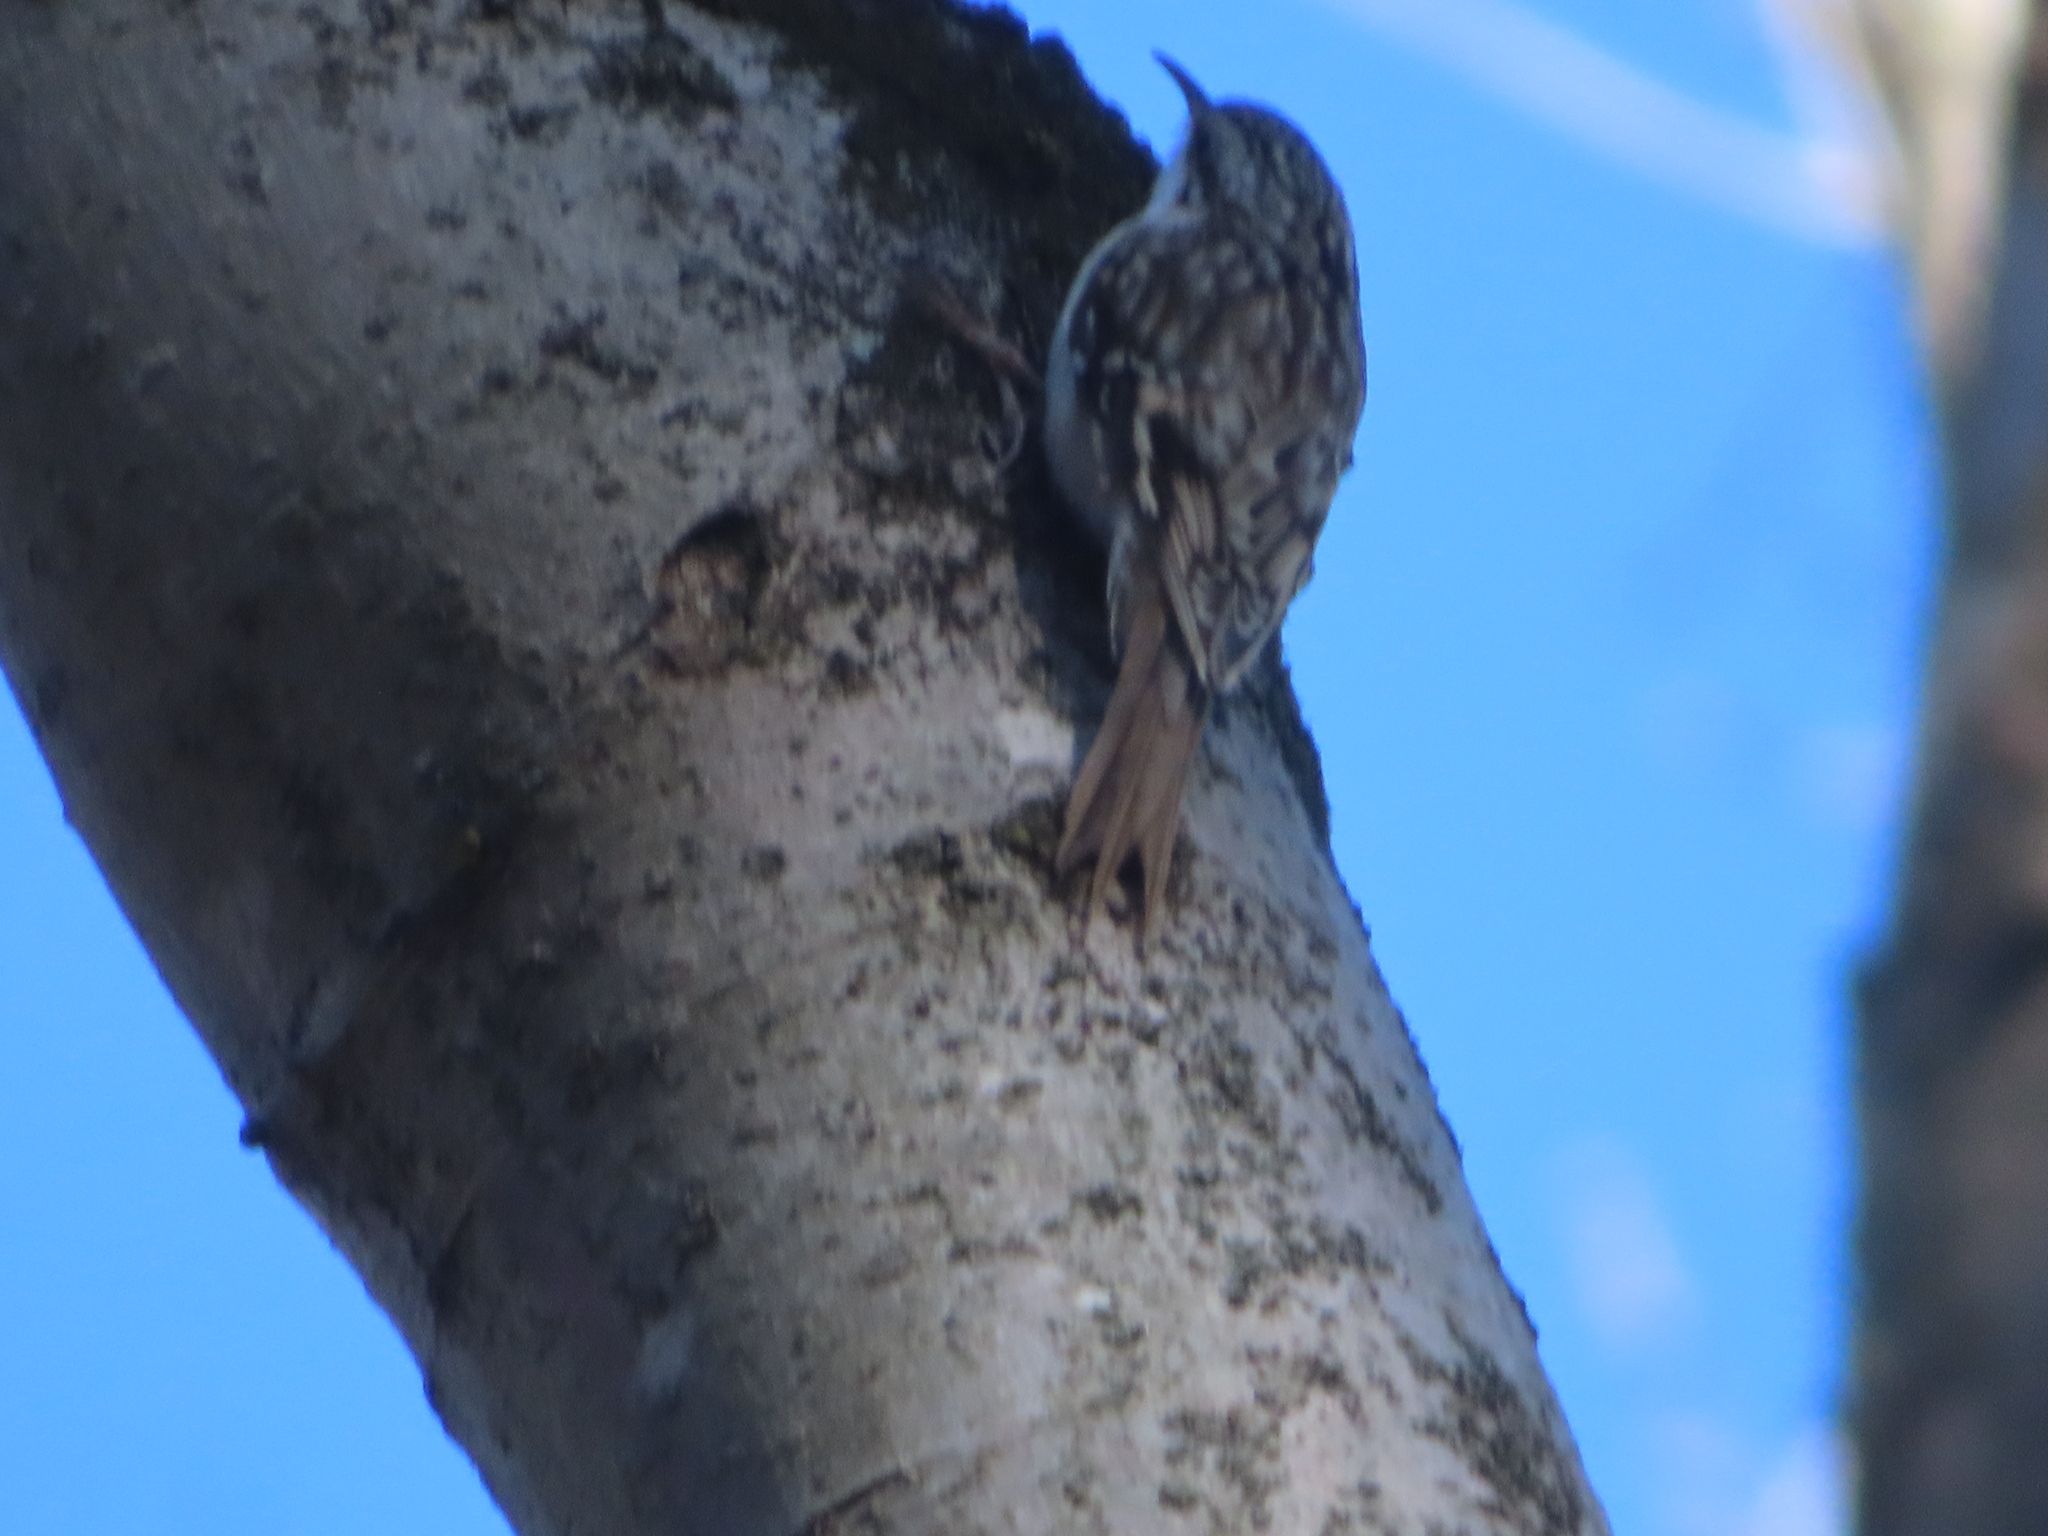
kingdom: Animalia
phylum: Chordata
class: Aves
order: Passeriformes
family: Certhiidae
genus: Certhia
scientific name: Certhia americana
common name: Brown creeper
